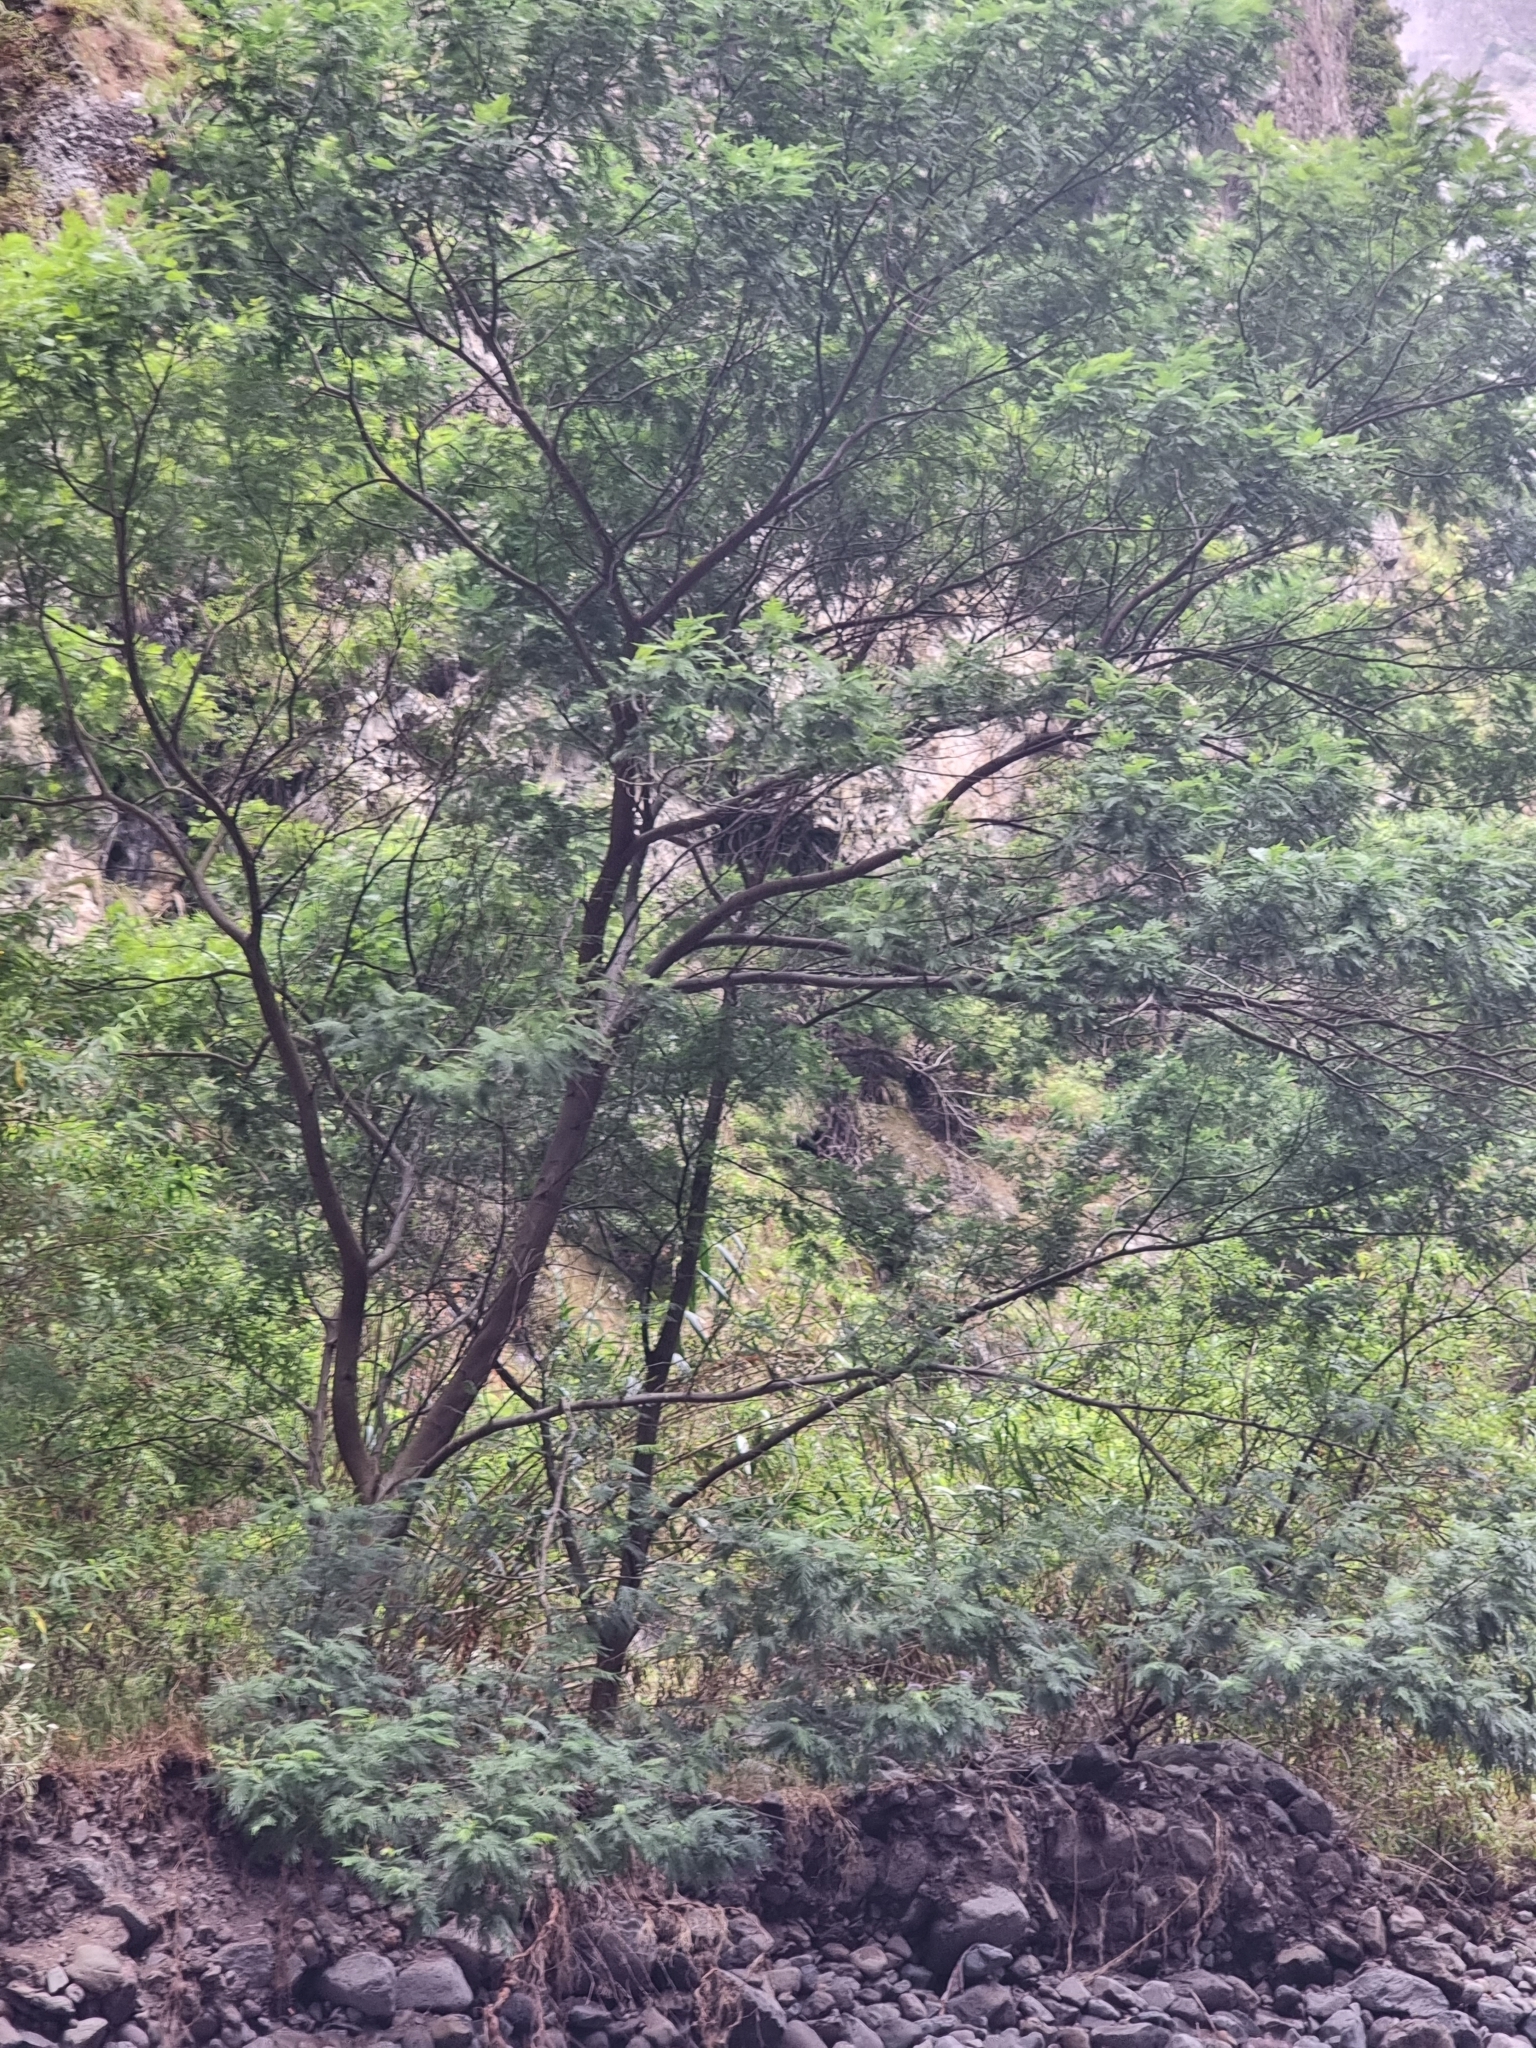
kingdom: Plantae
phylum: Tracheophyta
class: Magnoliopsida
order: Fabales
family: Fabaceae
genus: Acacia
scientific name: Acacia mearnsii
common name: Black wattle
